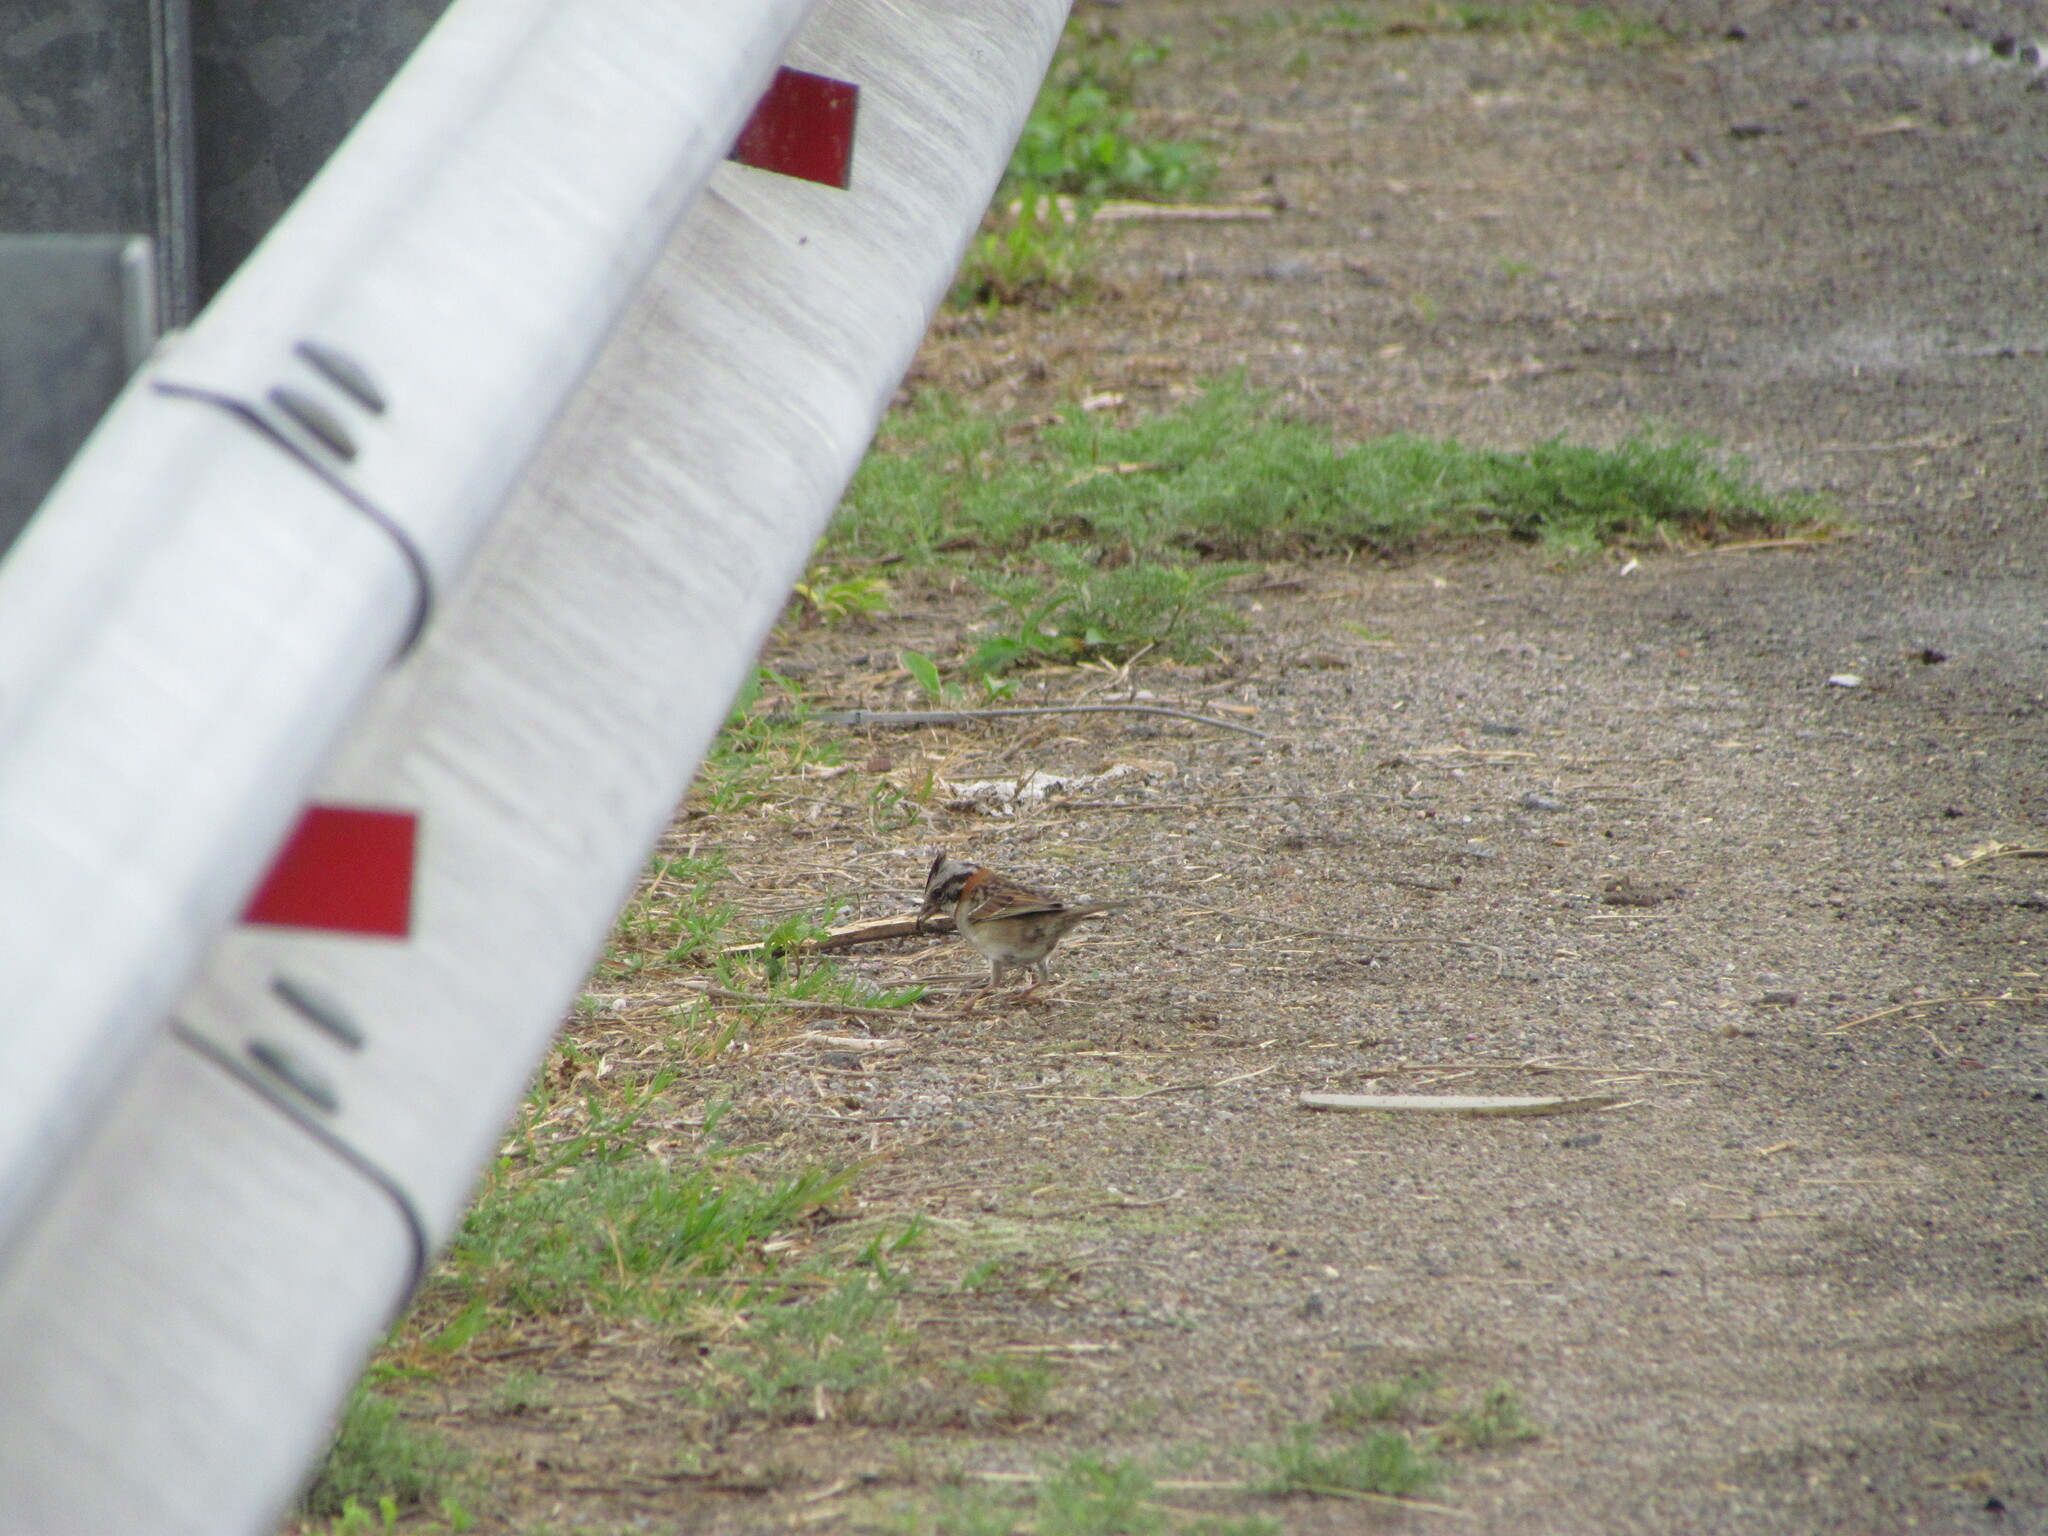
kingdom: Animalia
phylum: Chordata
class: Aves
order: Passeriformes
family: Passerellidae
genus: Zonotrichia
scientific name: Zonotrichia capensis
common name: Rufous-collared sparrow
